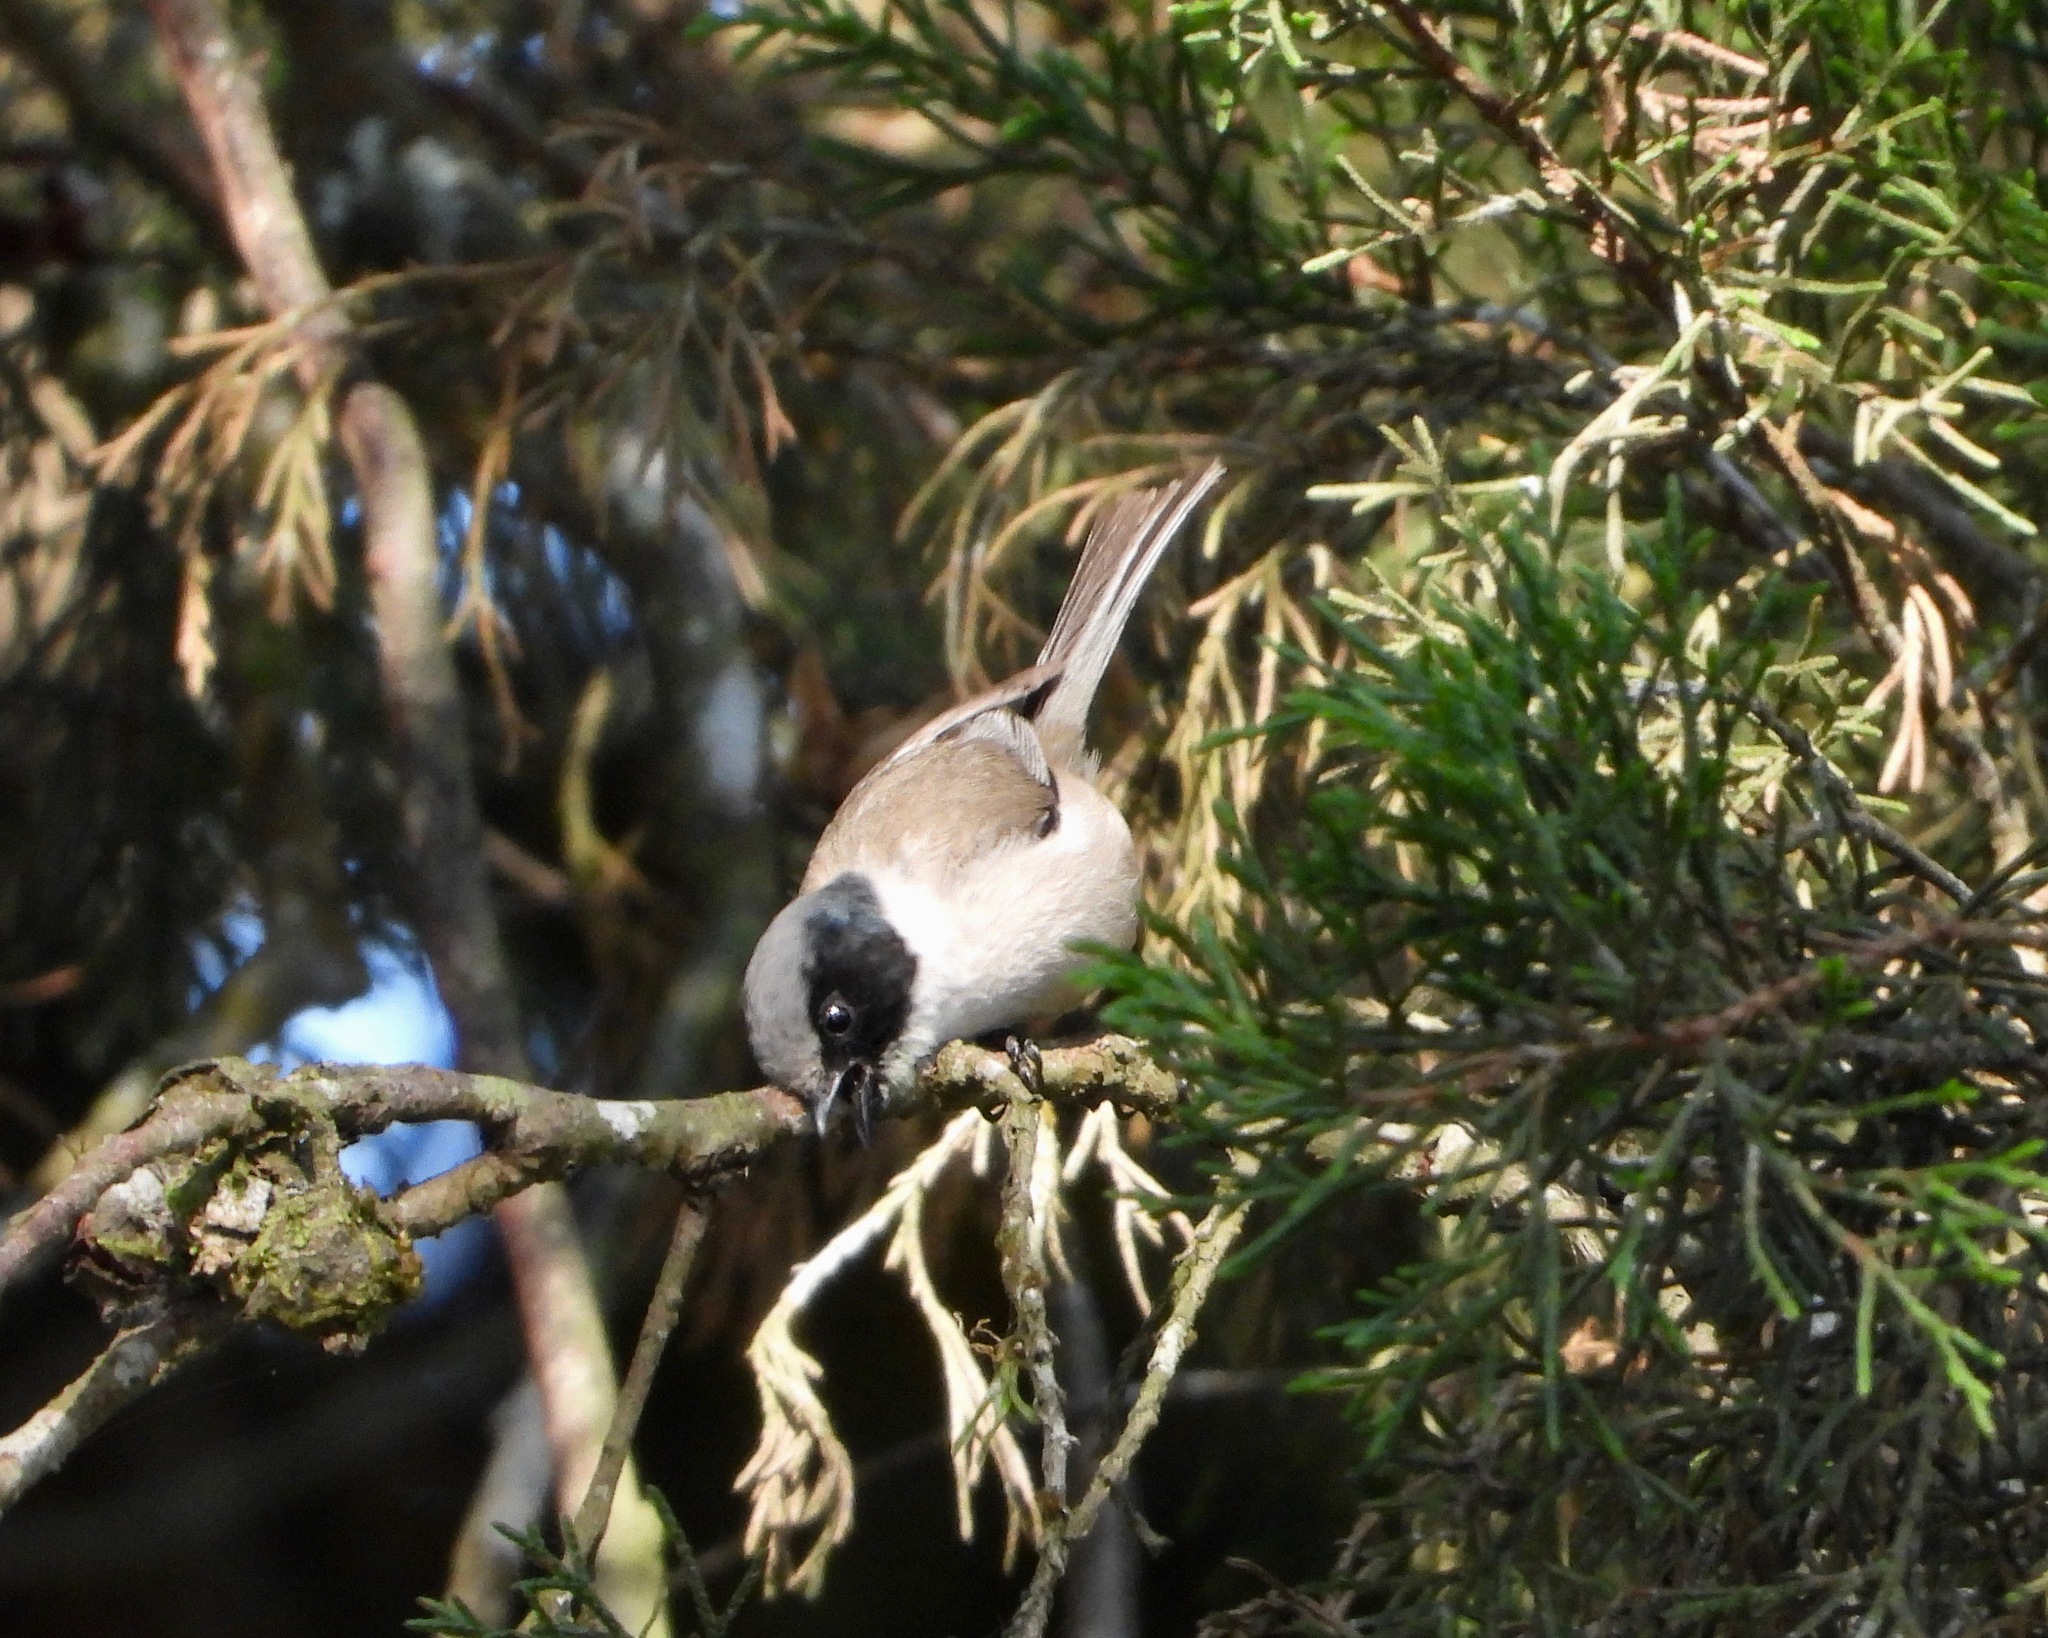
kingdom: Animalia
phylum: Chordata
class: Aves
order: Passeriformes
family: Aegithalidae
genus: Psaltriparus
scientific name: Psaltriparus minimus
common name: American bushtit
